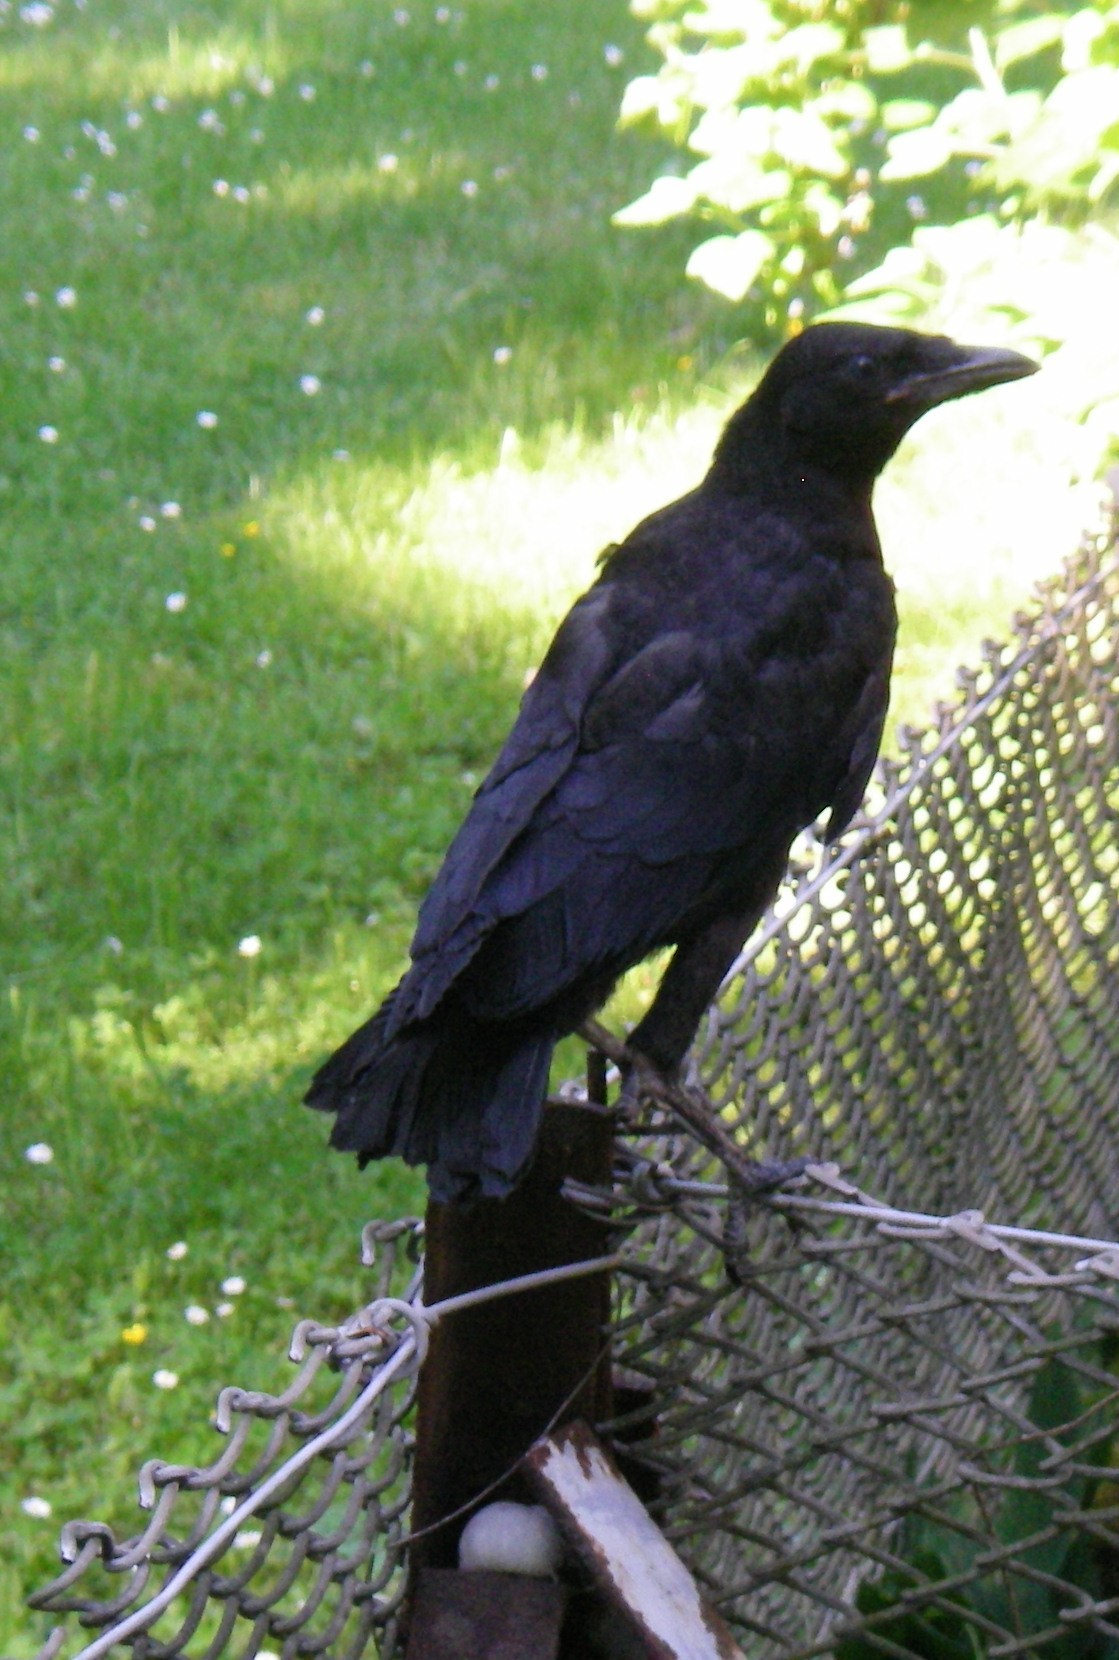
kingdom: Animalia
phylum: Chordata
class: Aves
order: Passeriformes
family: Corvidae
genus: Corvus
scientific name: Corvus corone
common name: Carrion crow
